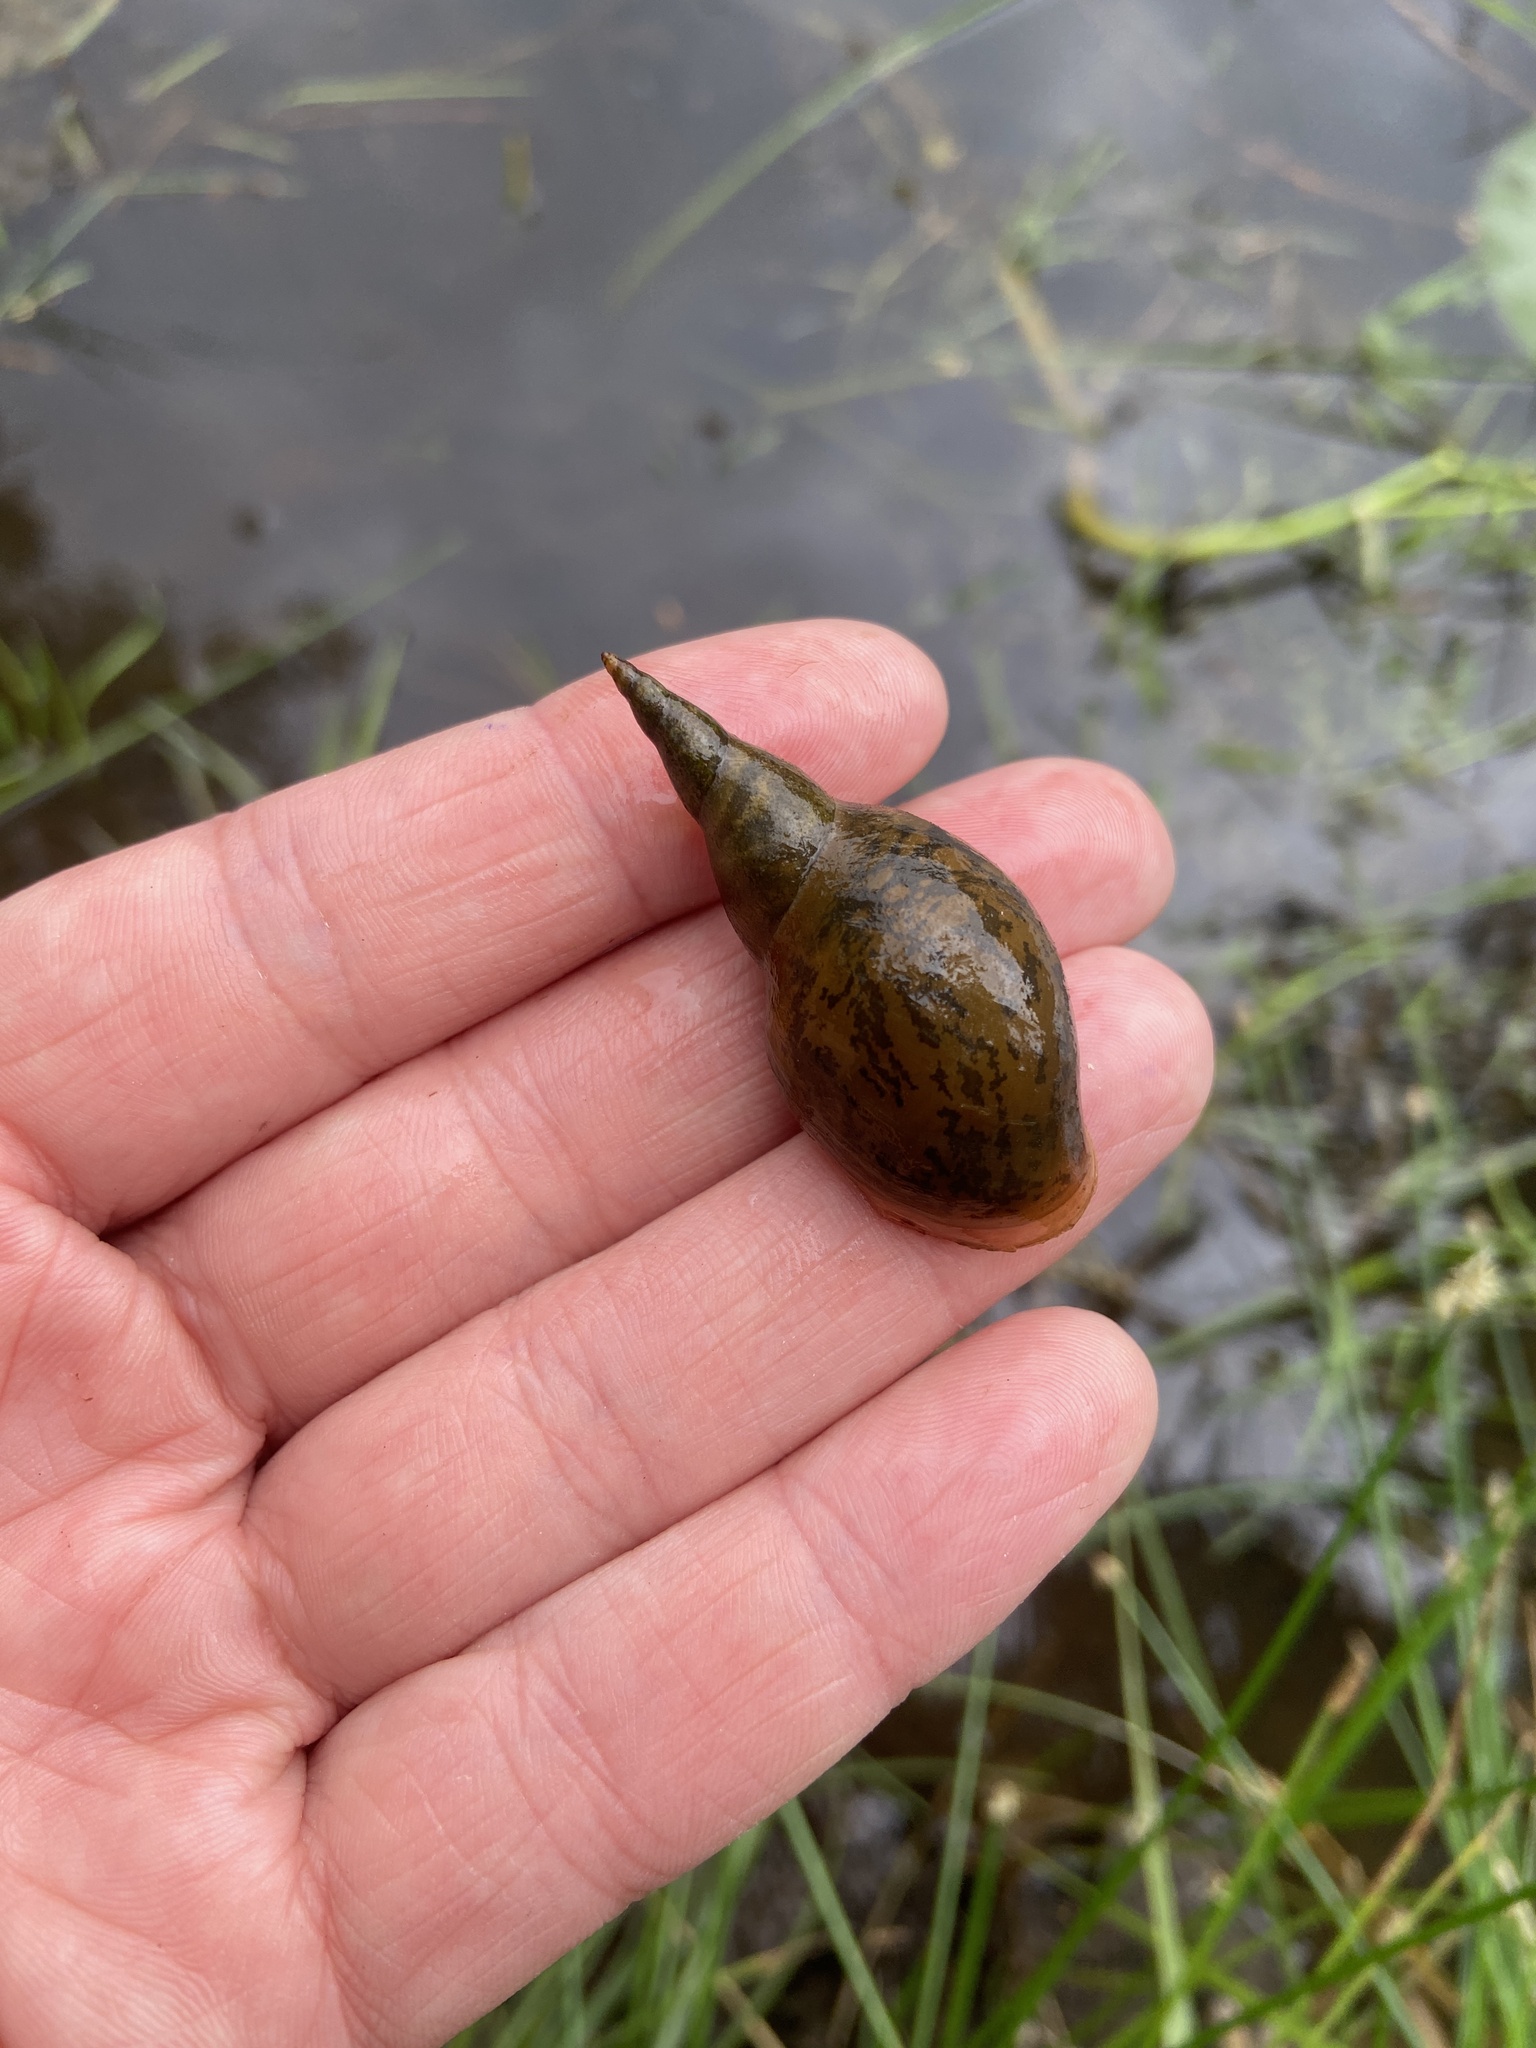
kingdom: Animalia
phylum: Mollusca
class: Gastropoda
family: Lymnaeidae
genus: Lymnaea
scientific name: Lymnaea stagnalis
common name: Great pond snail
